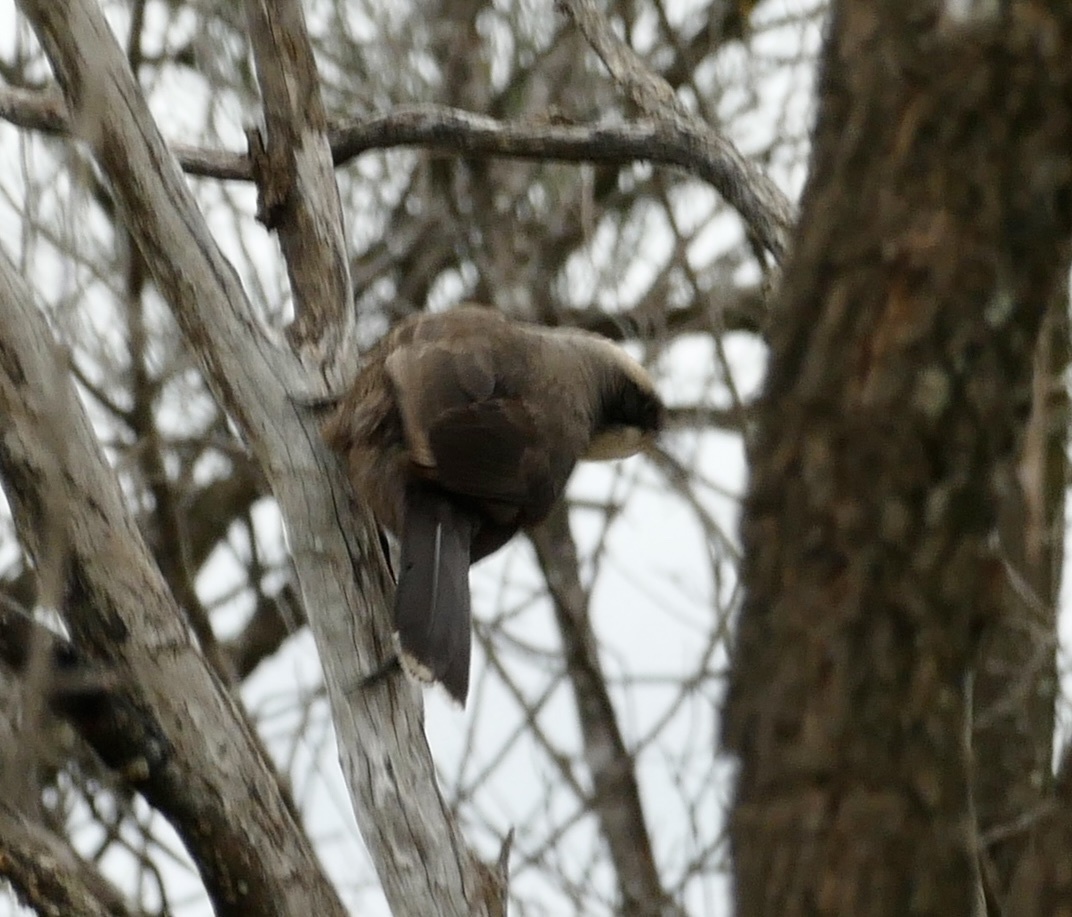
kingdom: Animalia
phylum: Chordata
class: Aves
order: Passeriformes
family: Pomatostomidae
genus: Pomatostomus
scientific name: Pomatostomus temporalis
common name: Grey-crowned babbler
